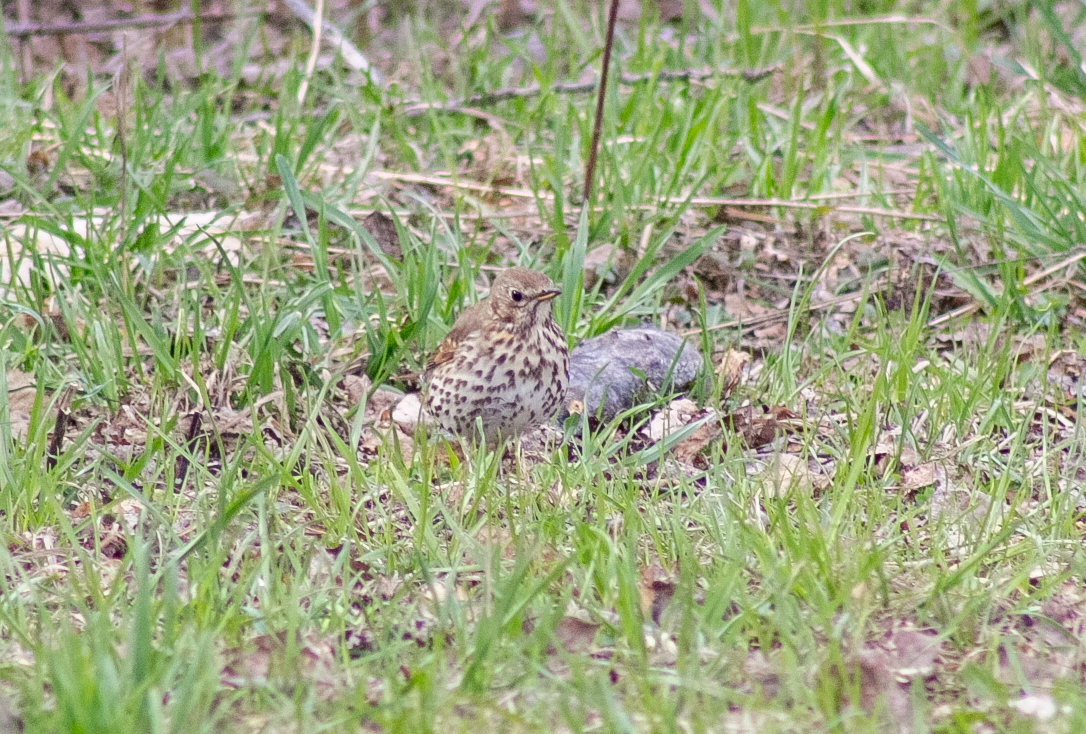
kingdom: Animalia
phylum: Chordata
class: Aves
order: Passeriformes
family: Turdidae
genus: Turdus
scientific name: Turdus philomelos
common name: Song thrush
